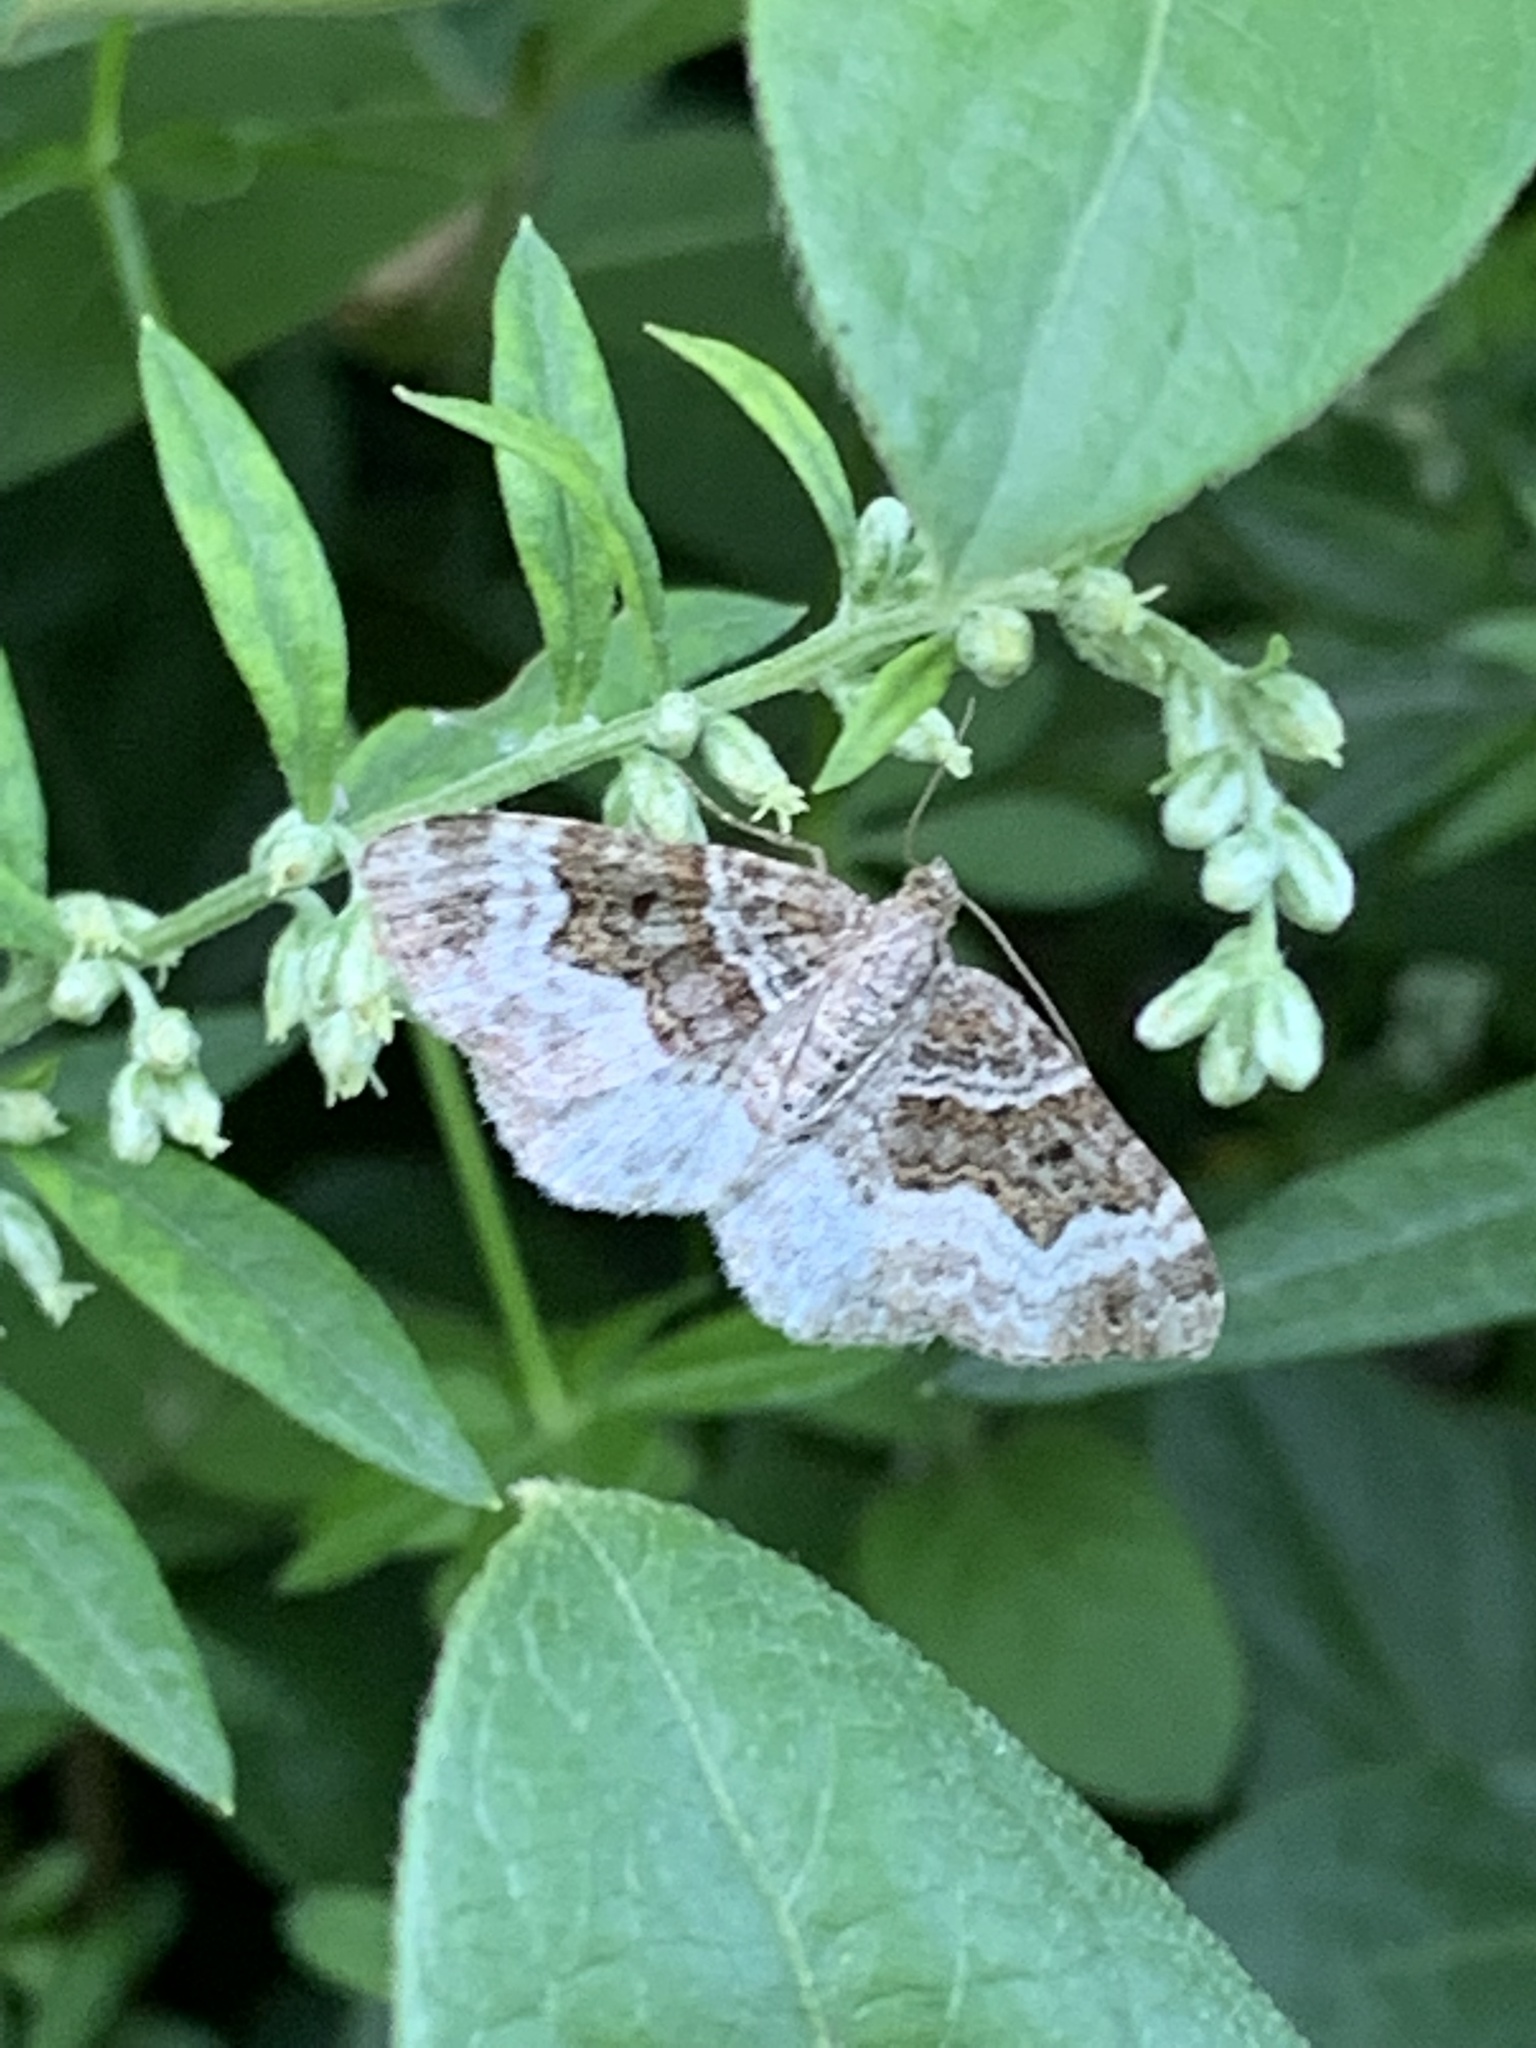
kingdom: Animalia
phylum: Arthropoda
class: Insecta
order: Lepidoptera
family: Geometridae
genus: Epirrhoe
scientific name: Epirrhoe alternata
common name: Common carpet
